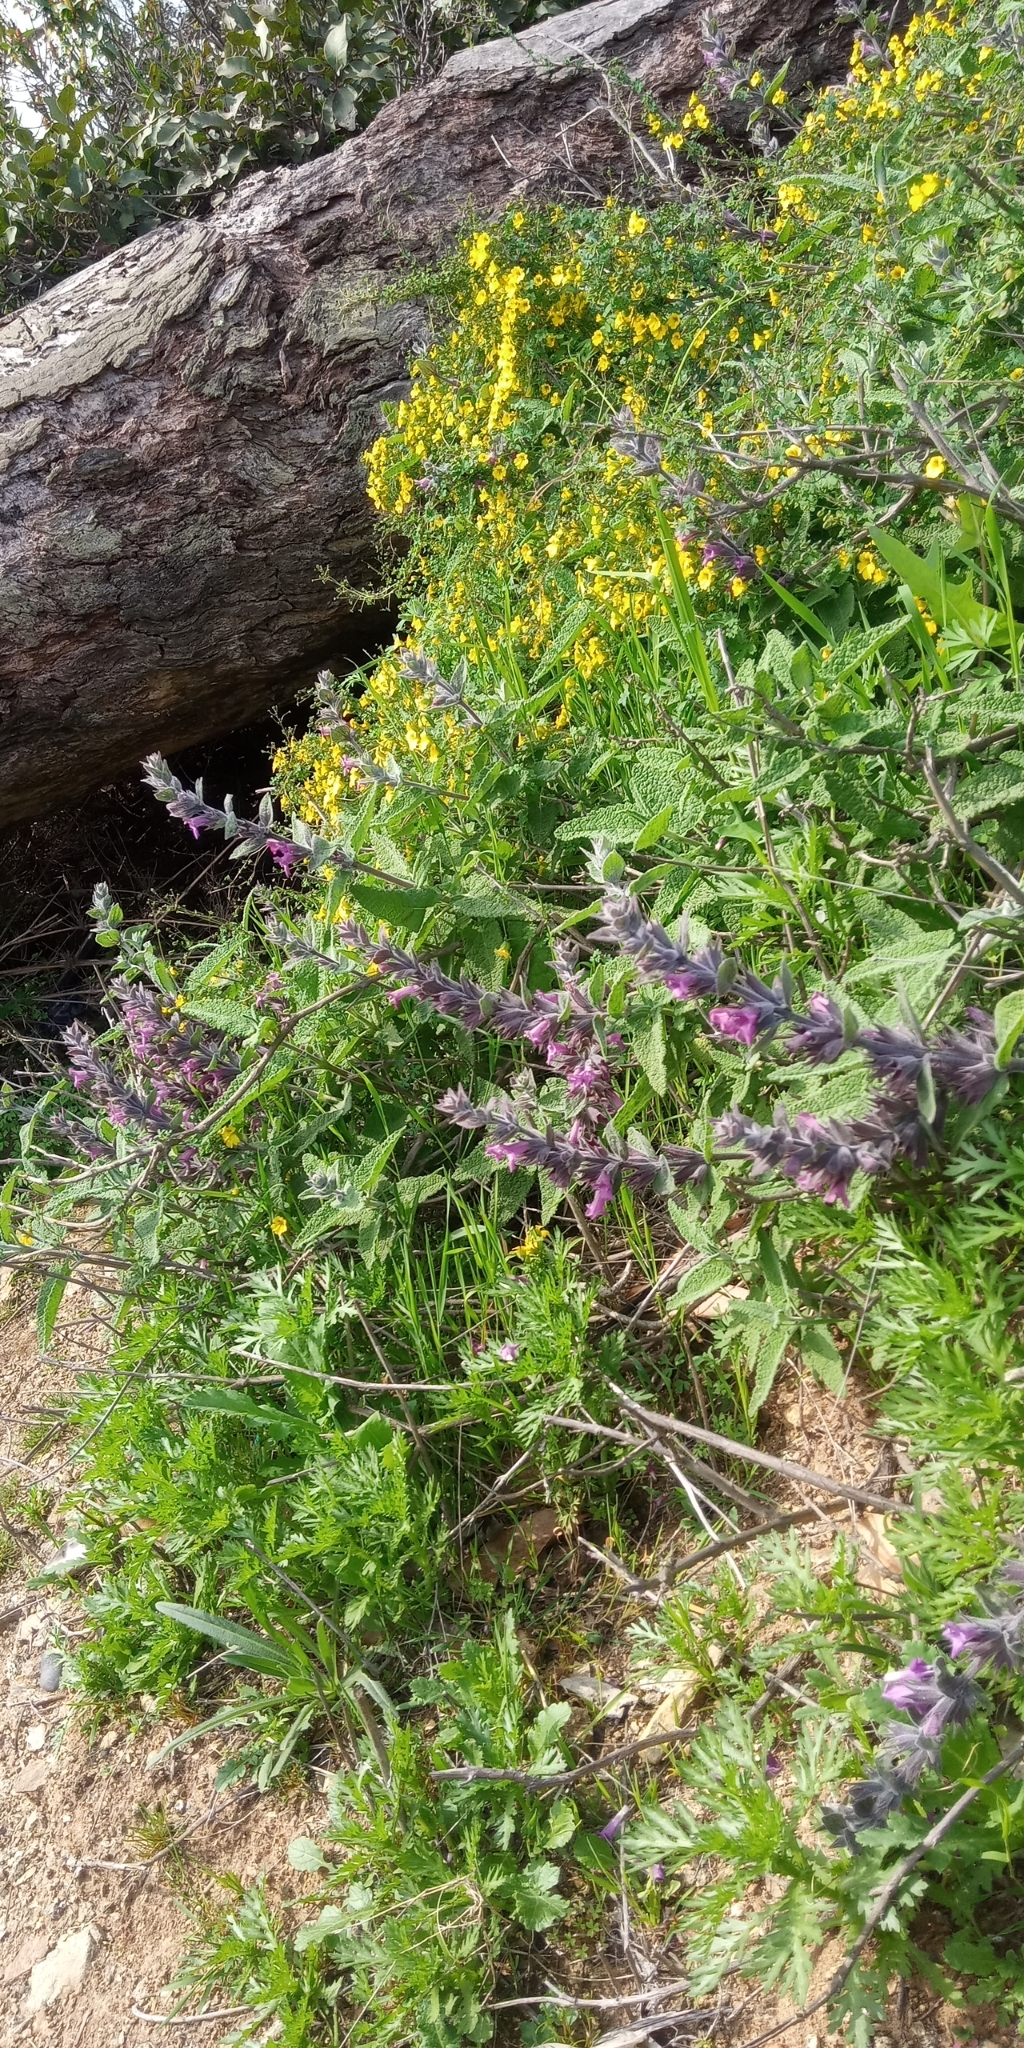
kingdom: Plantae
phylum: Tracheophyta
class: Magnoliopsida
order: Lamiales
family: Lamiaceae
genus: Lepechinia
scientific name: Lepechinia salviae
